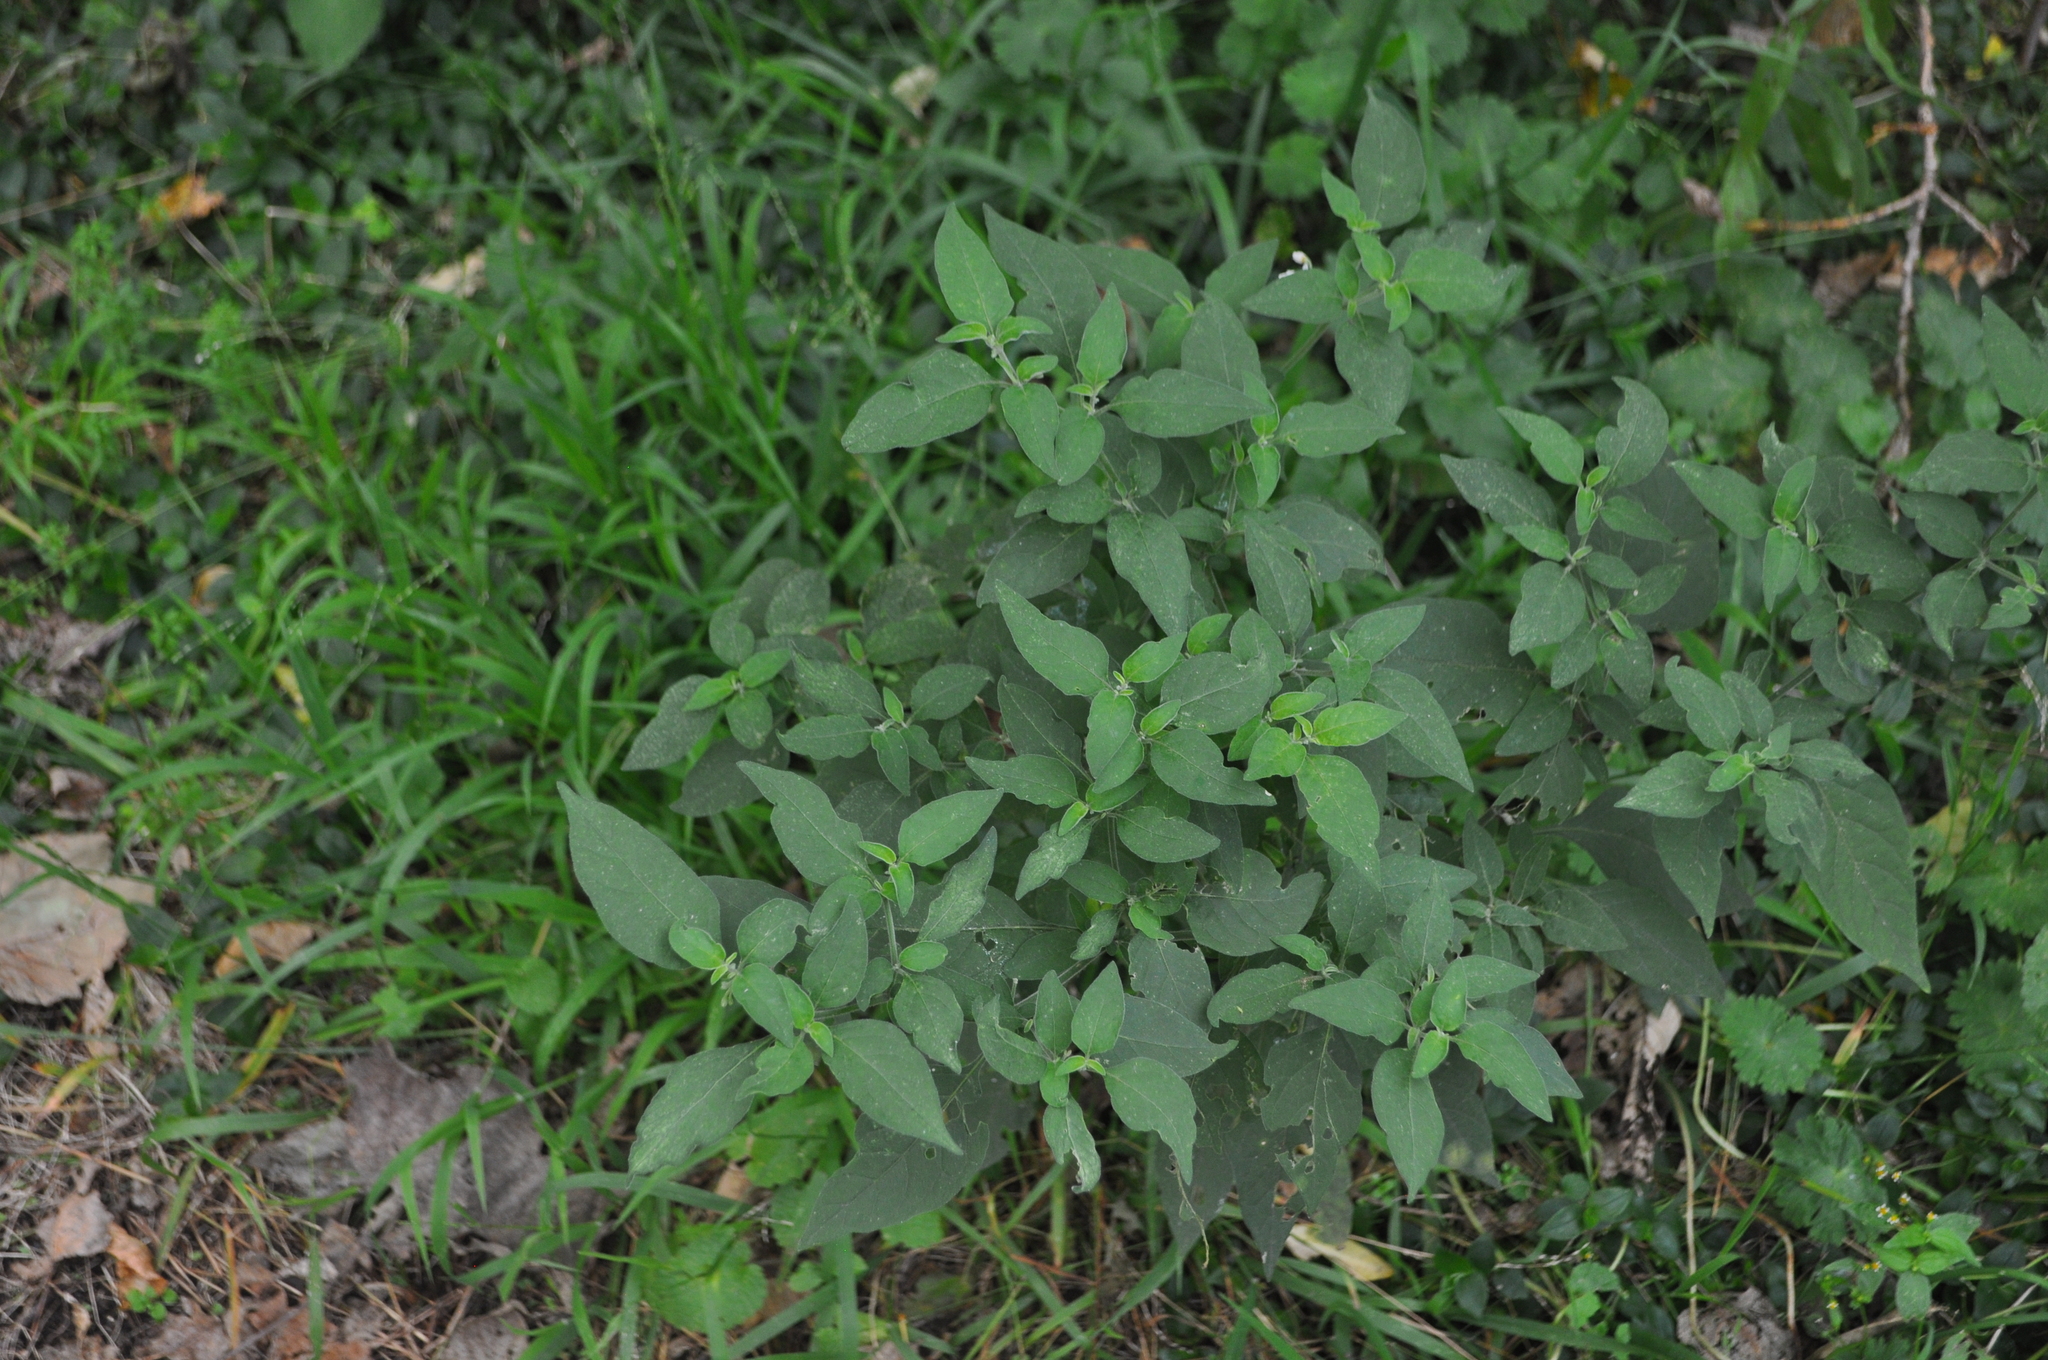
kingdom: Plantae
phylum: Tracheophyta
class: Magnoliopsida
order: Solanales
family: Solanaceae
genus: Solanum
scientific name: Solanum chenopodioides
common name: Tall nightshade
